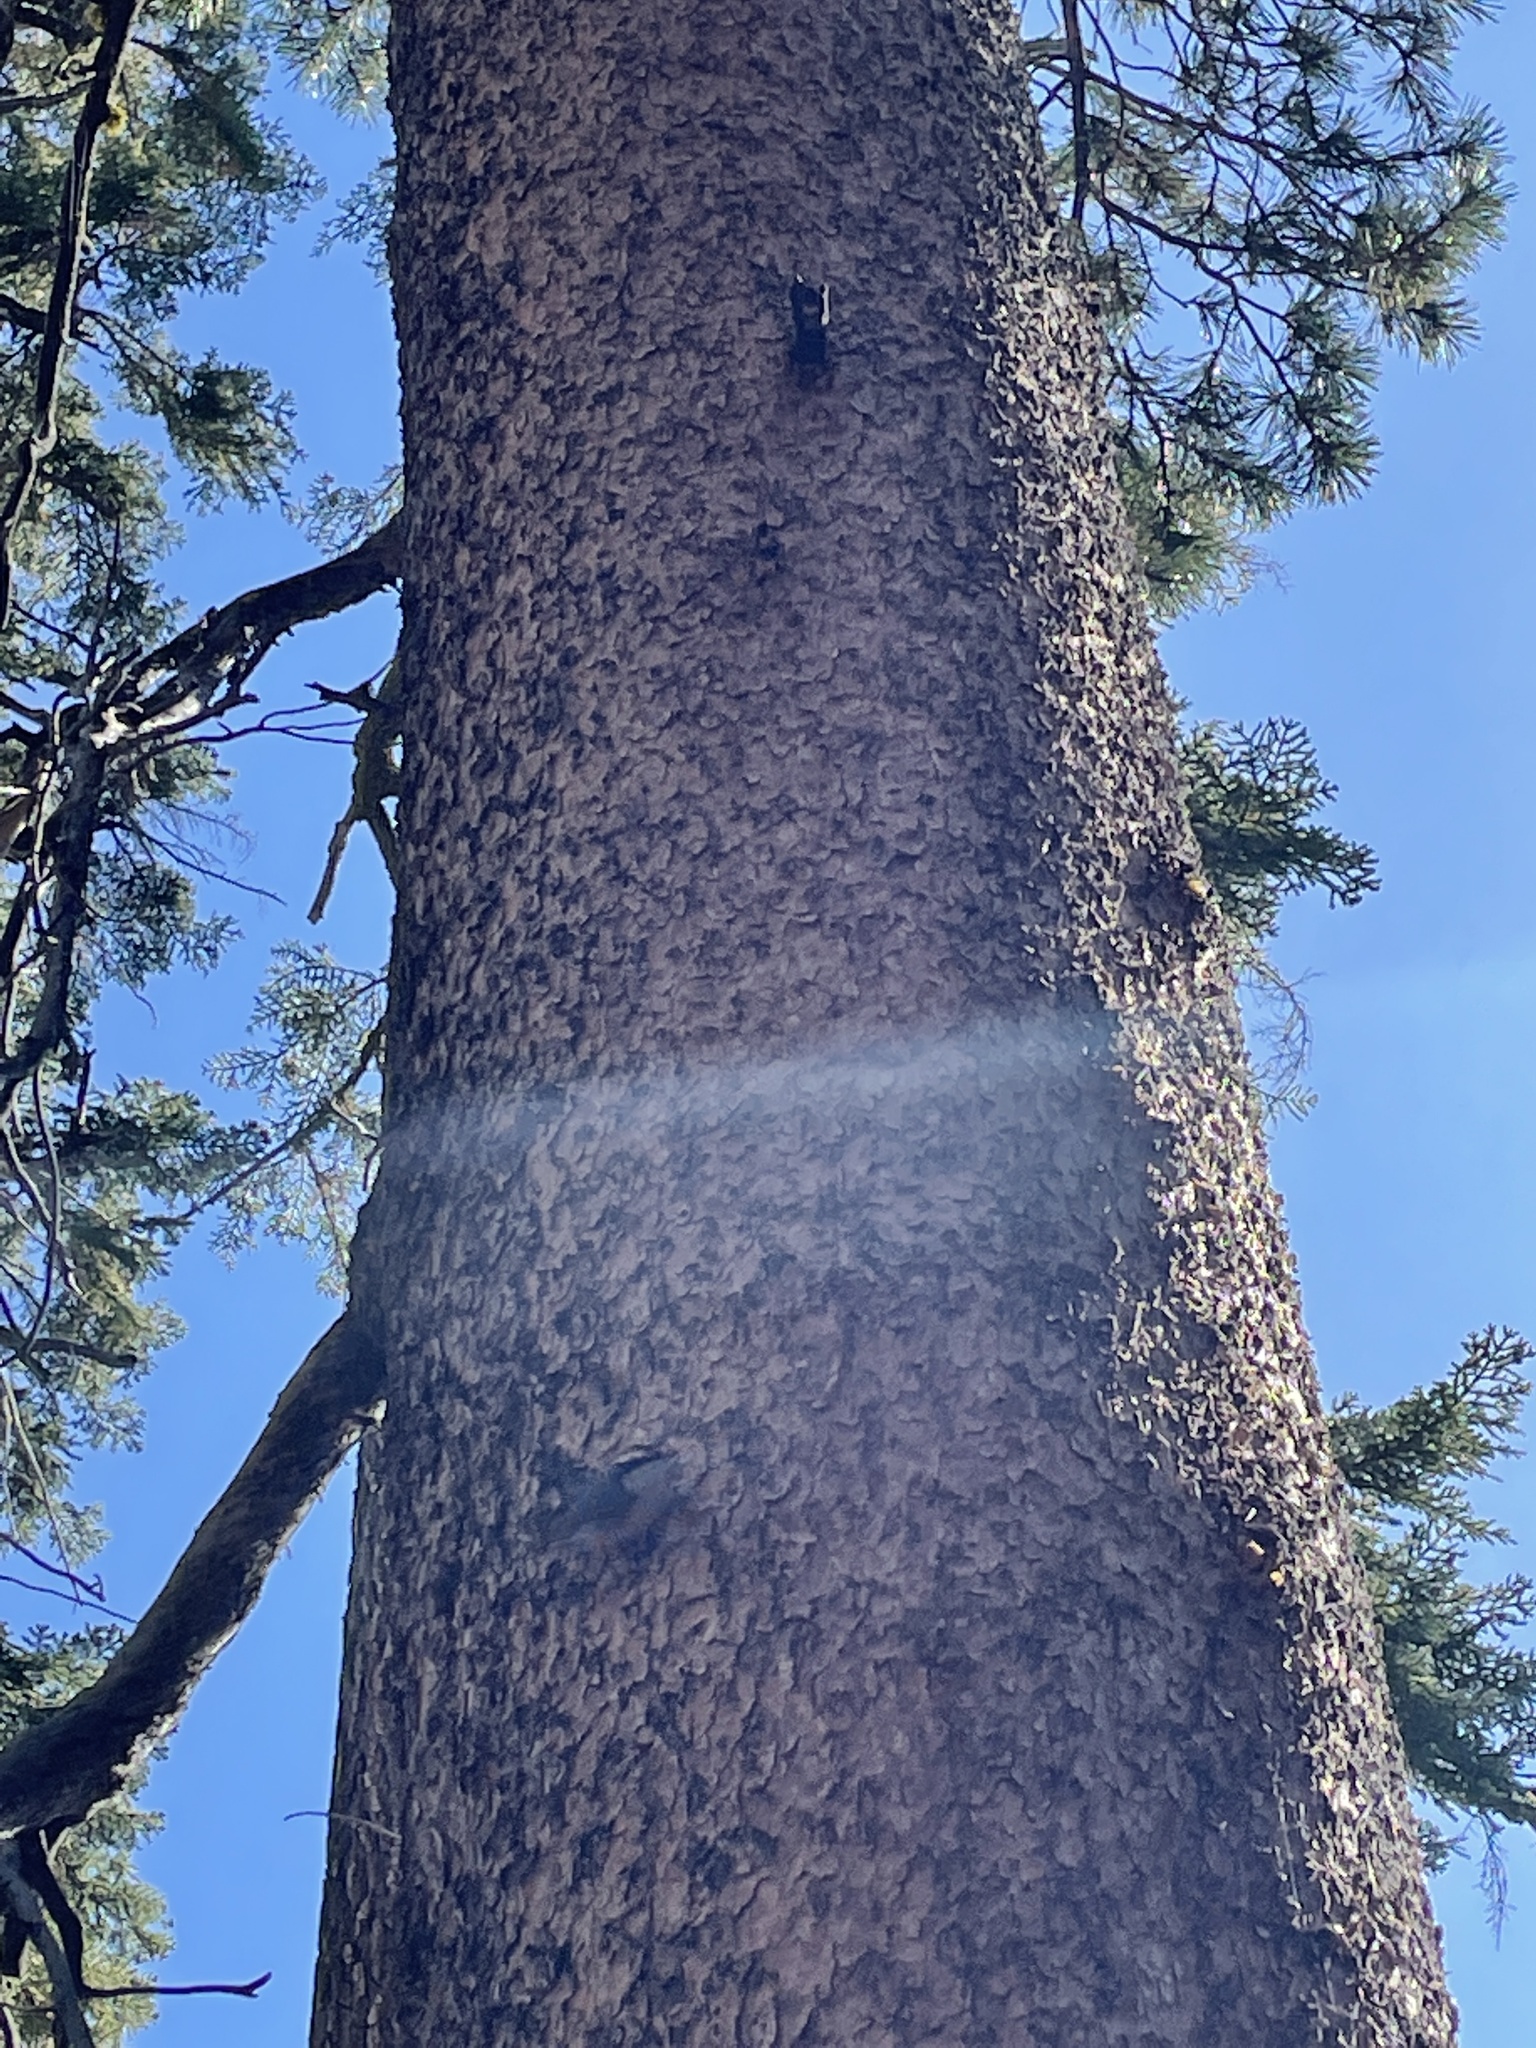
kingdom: Animalia
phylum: Chordata
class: Aves
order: Passeriformes
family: Sittidae
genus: Sitta
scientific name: Sitta canadensis
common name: Red-breasted nuthatch
